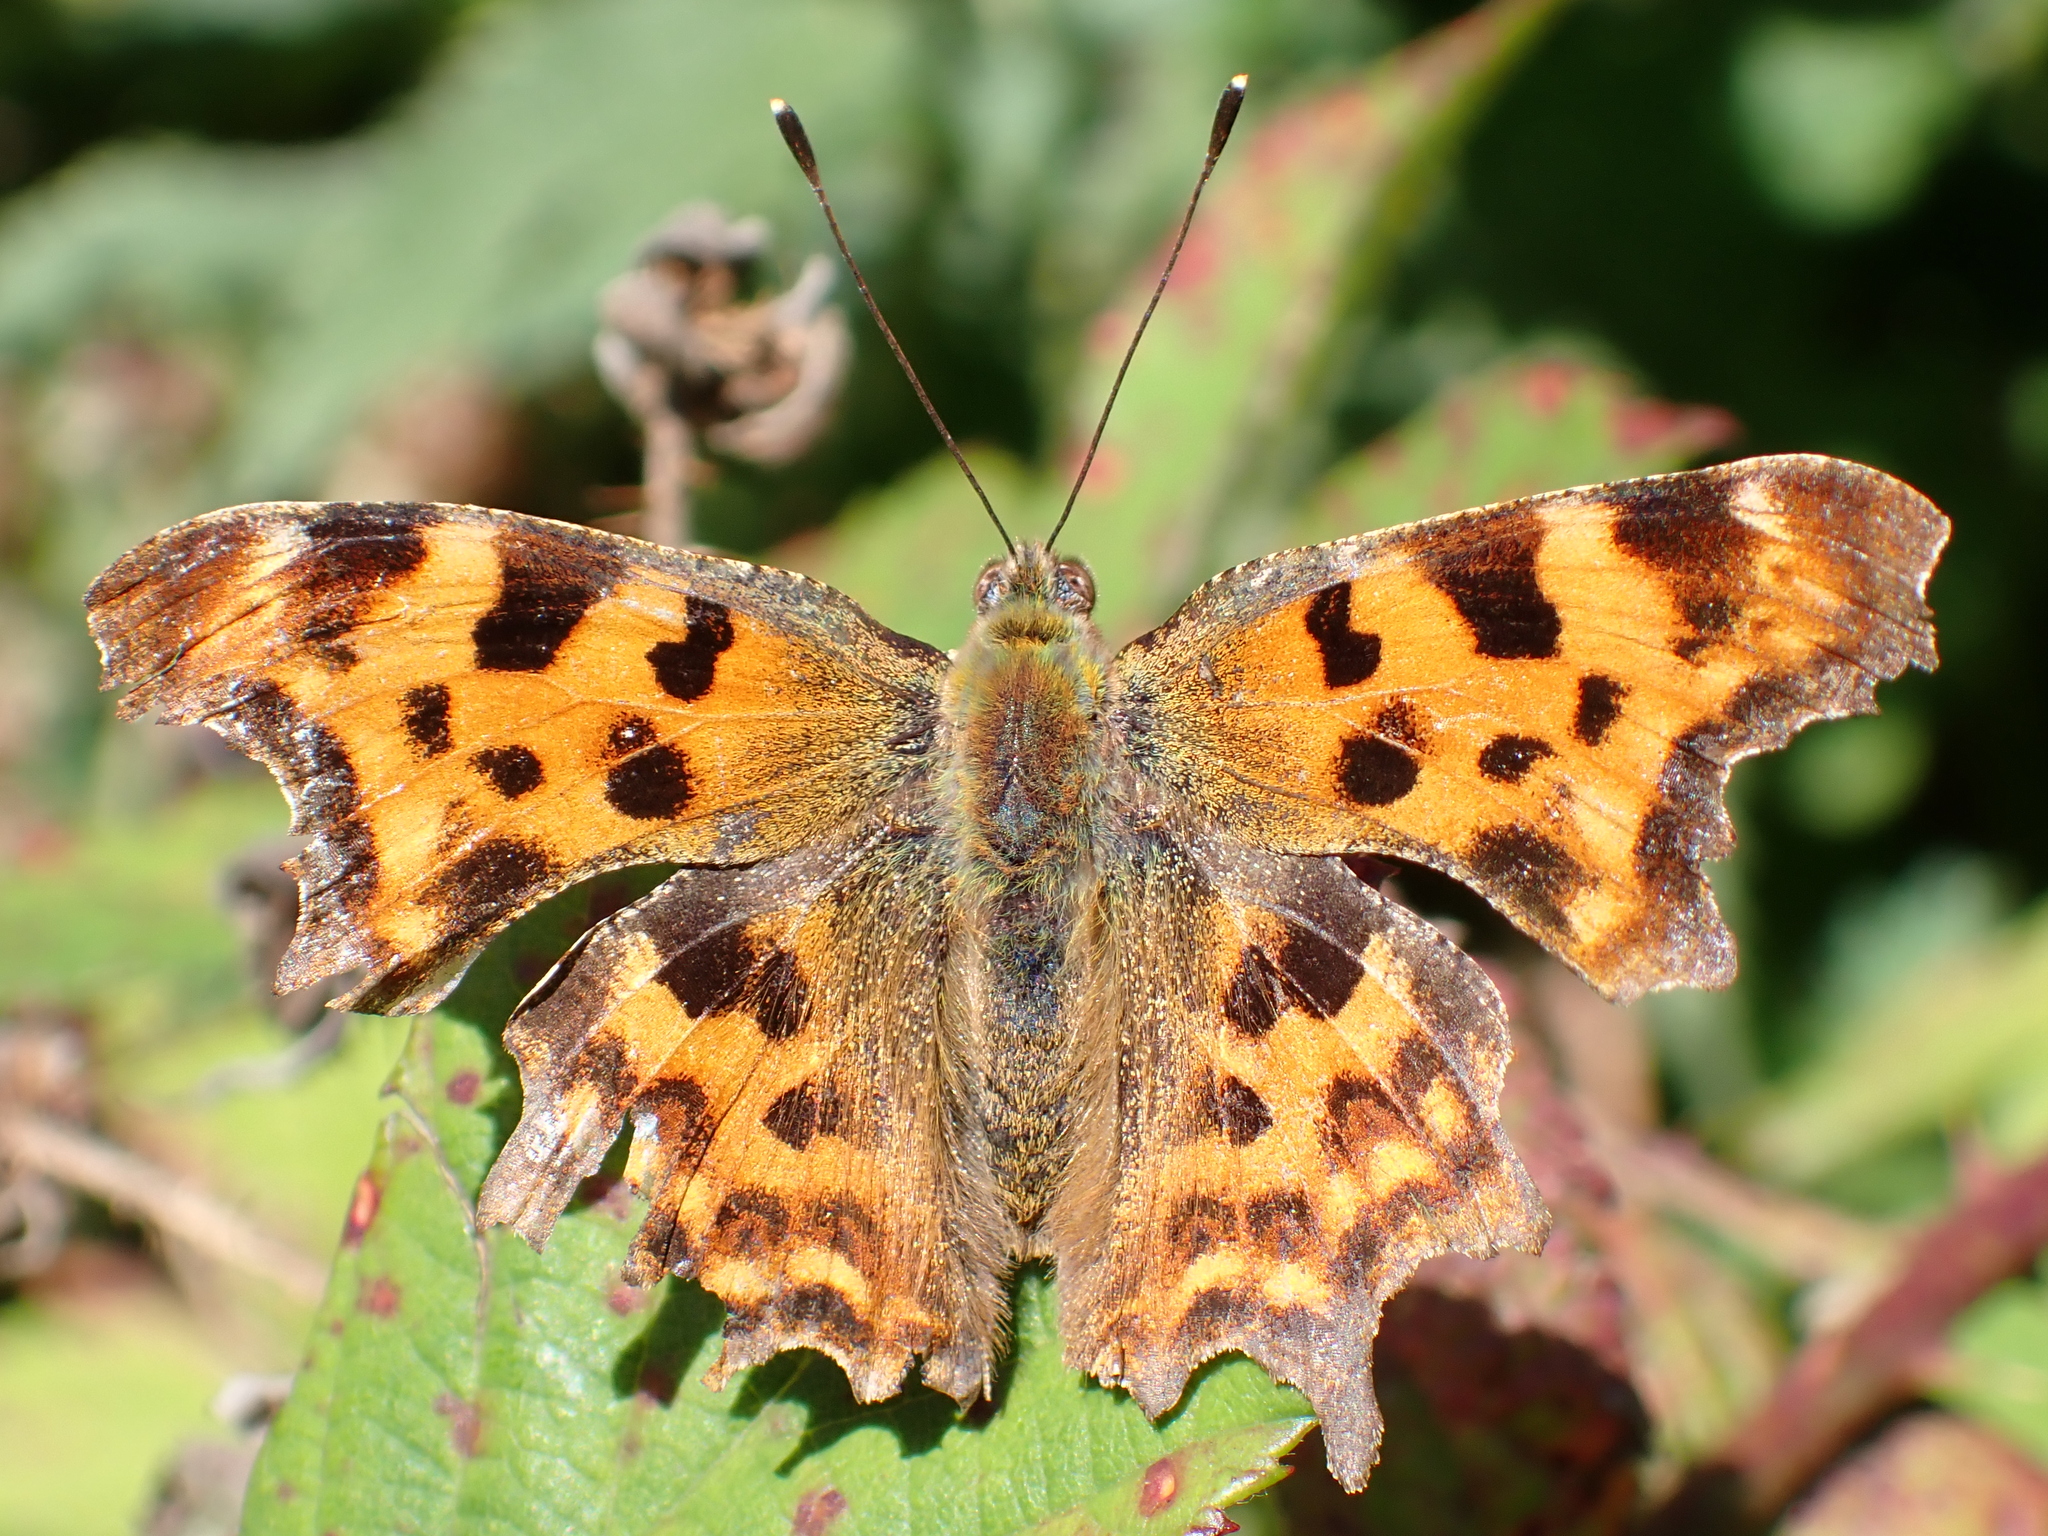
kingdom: Animalia
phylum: Arthropoda
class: Insecta
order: Lepidoptera
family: Nymphalidae
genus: Polygonia
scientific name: Polygonia c-album
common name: Comma
